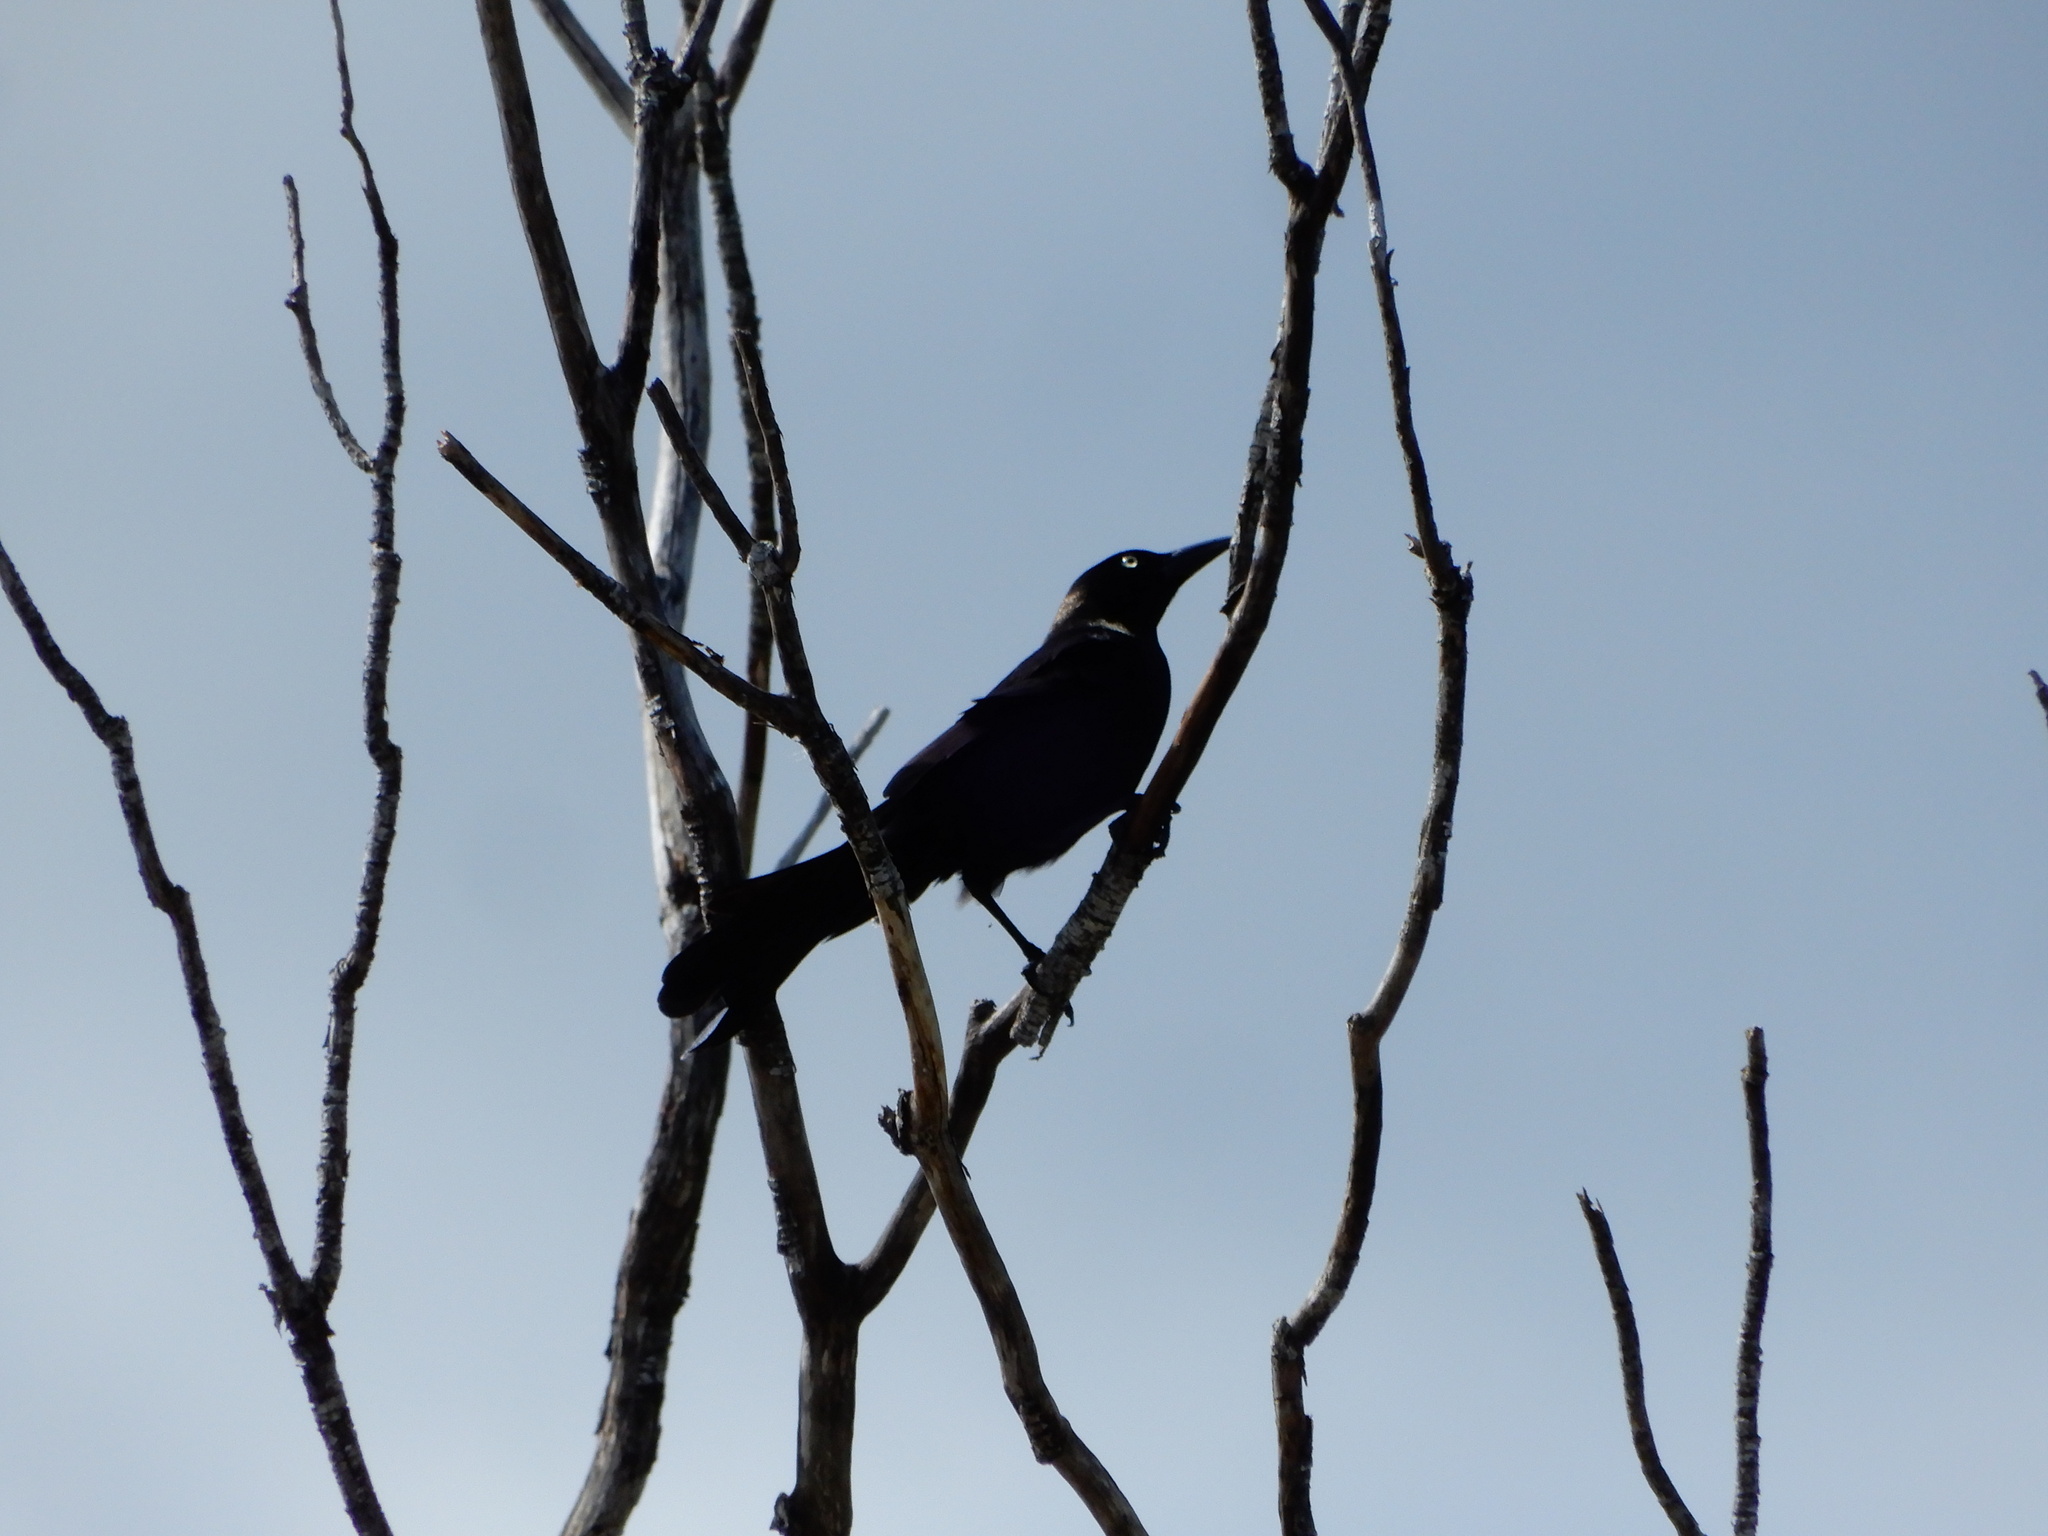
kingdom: Animalia
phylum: Chordata
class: Aves
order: Passeriformes
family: Icteridae
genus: Quiscalus
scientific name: Quiscalus quiscula
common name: Common grackle
